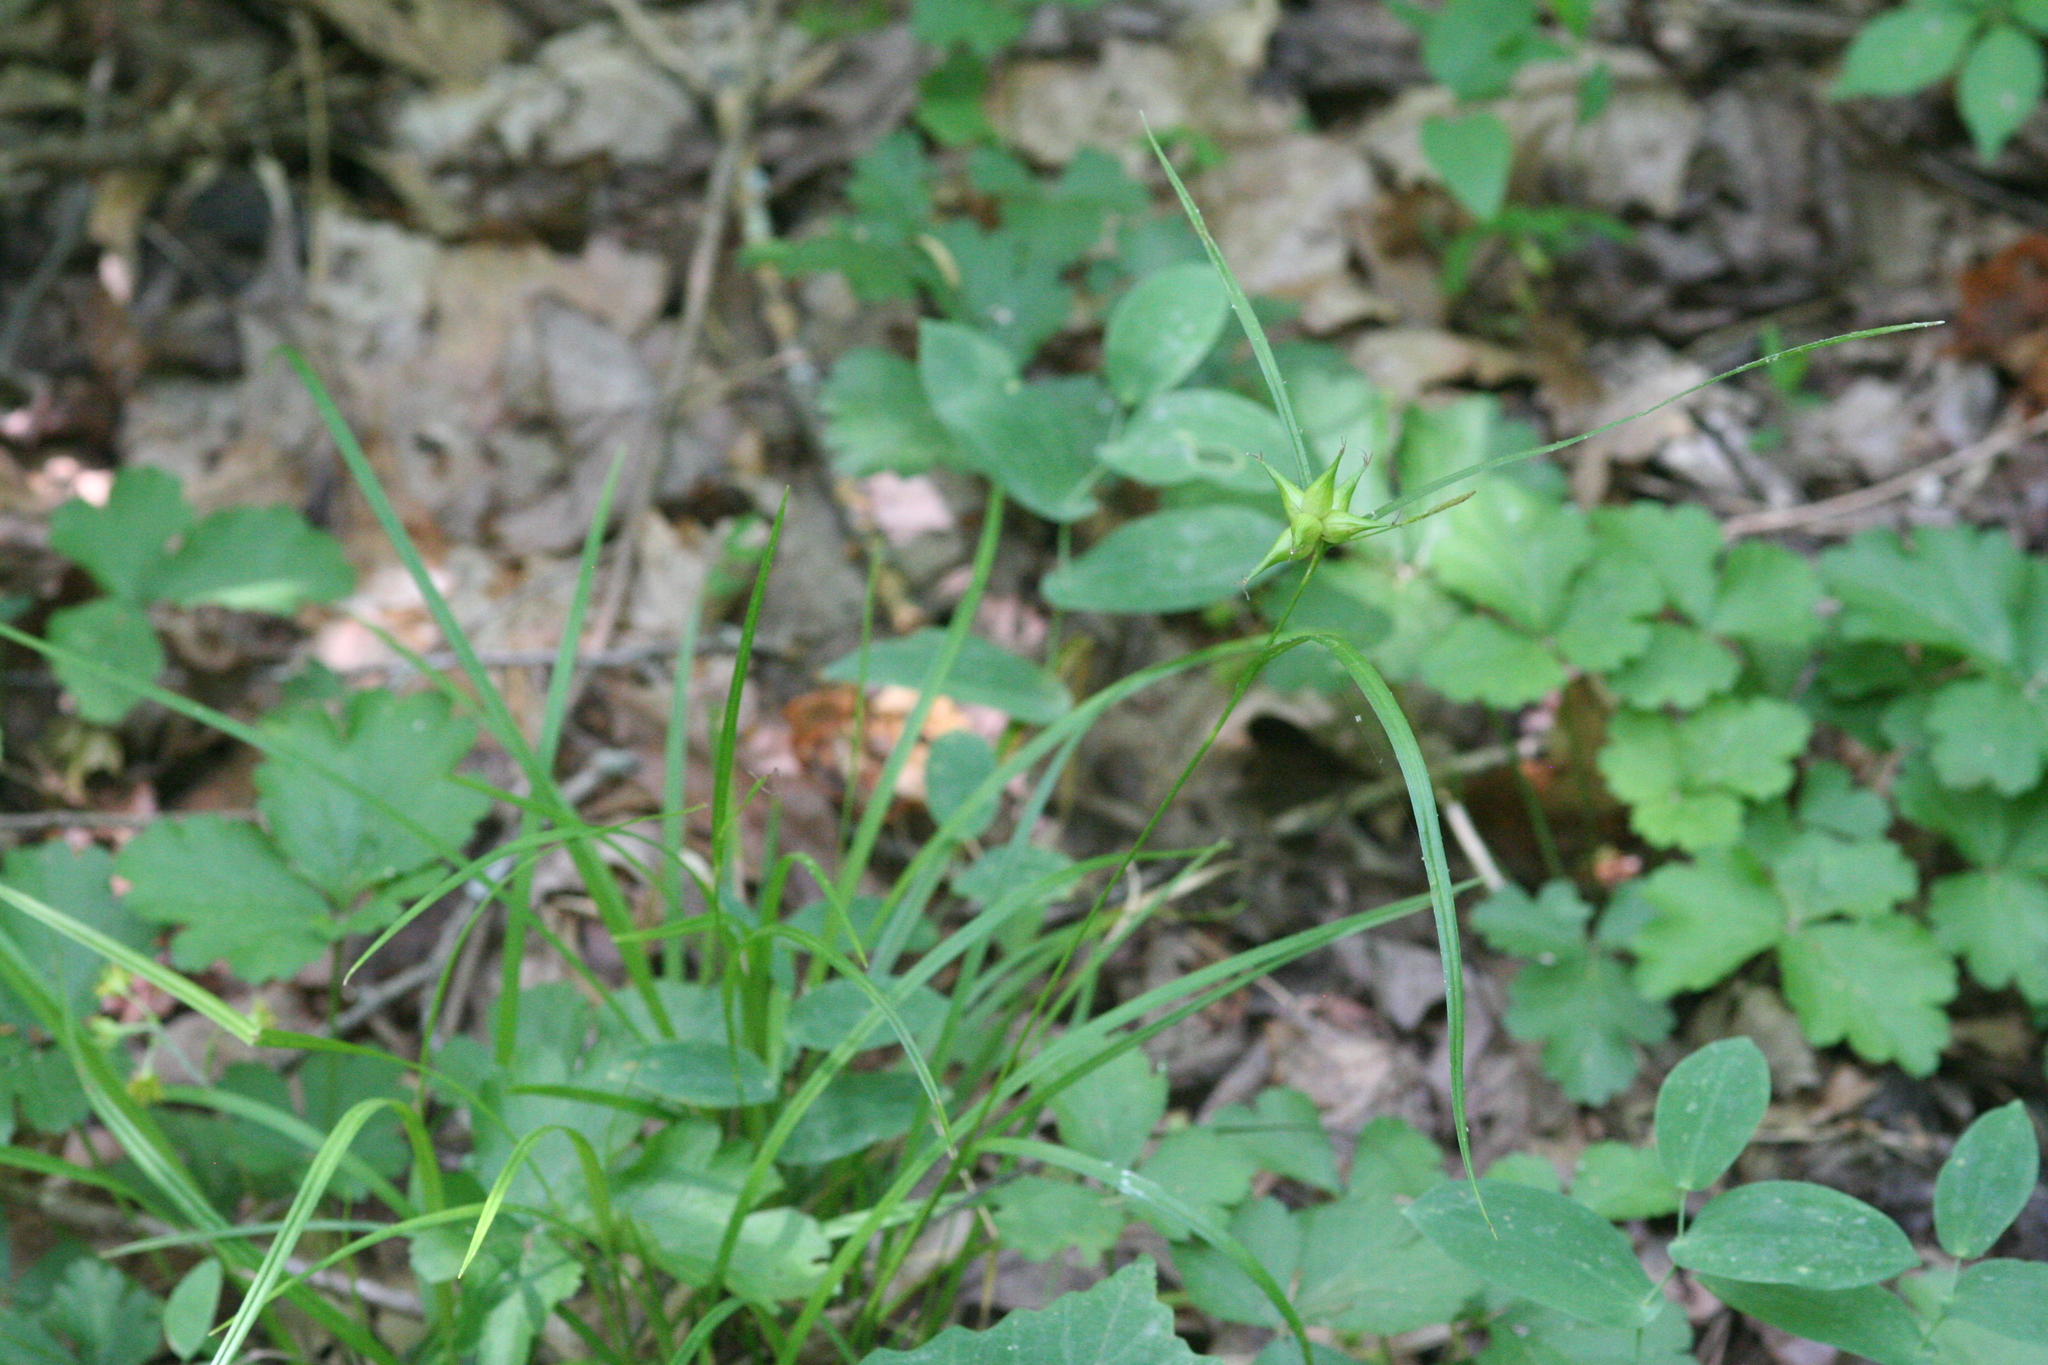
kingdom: Plantae
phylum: Tracheophyta
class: Liliopsida
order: Poales
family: Cyperaceae
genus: Carex
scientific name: Carex intumescens
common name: Greater bladder sedge
